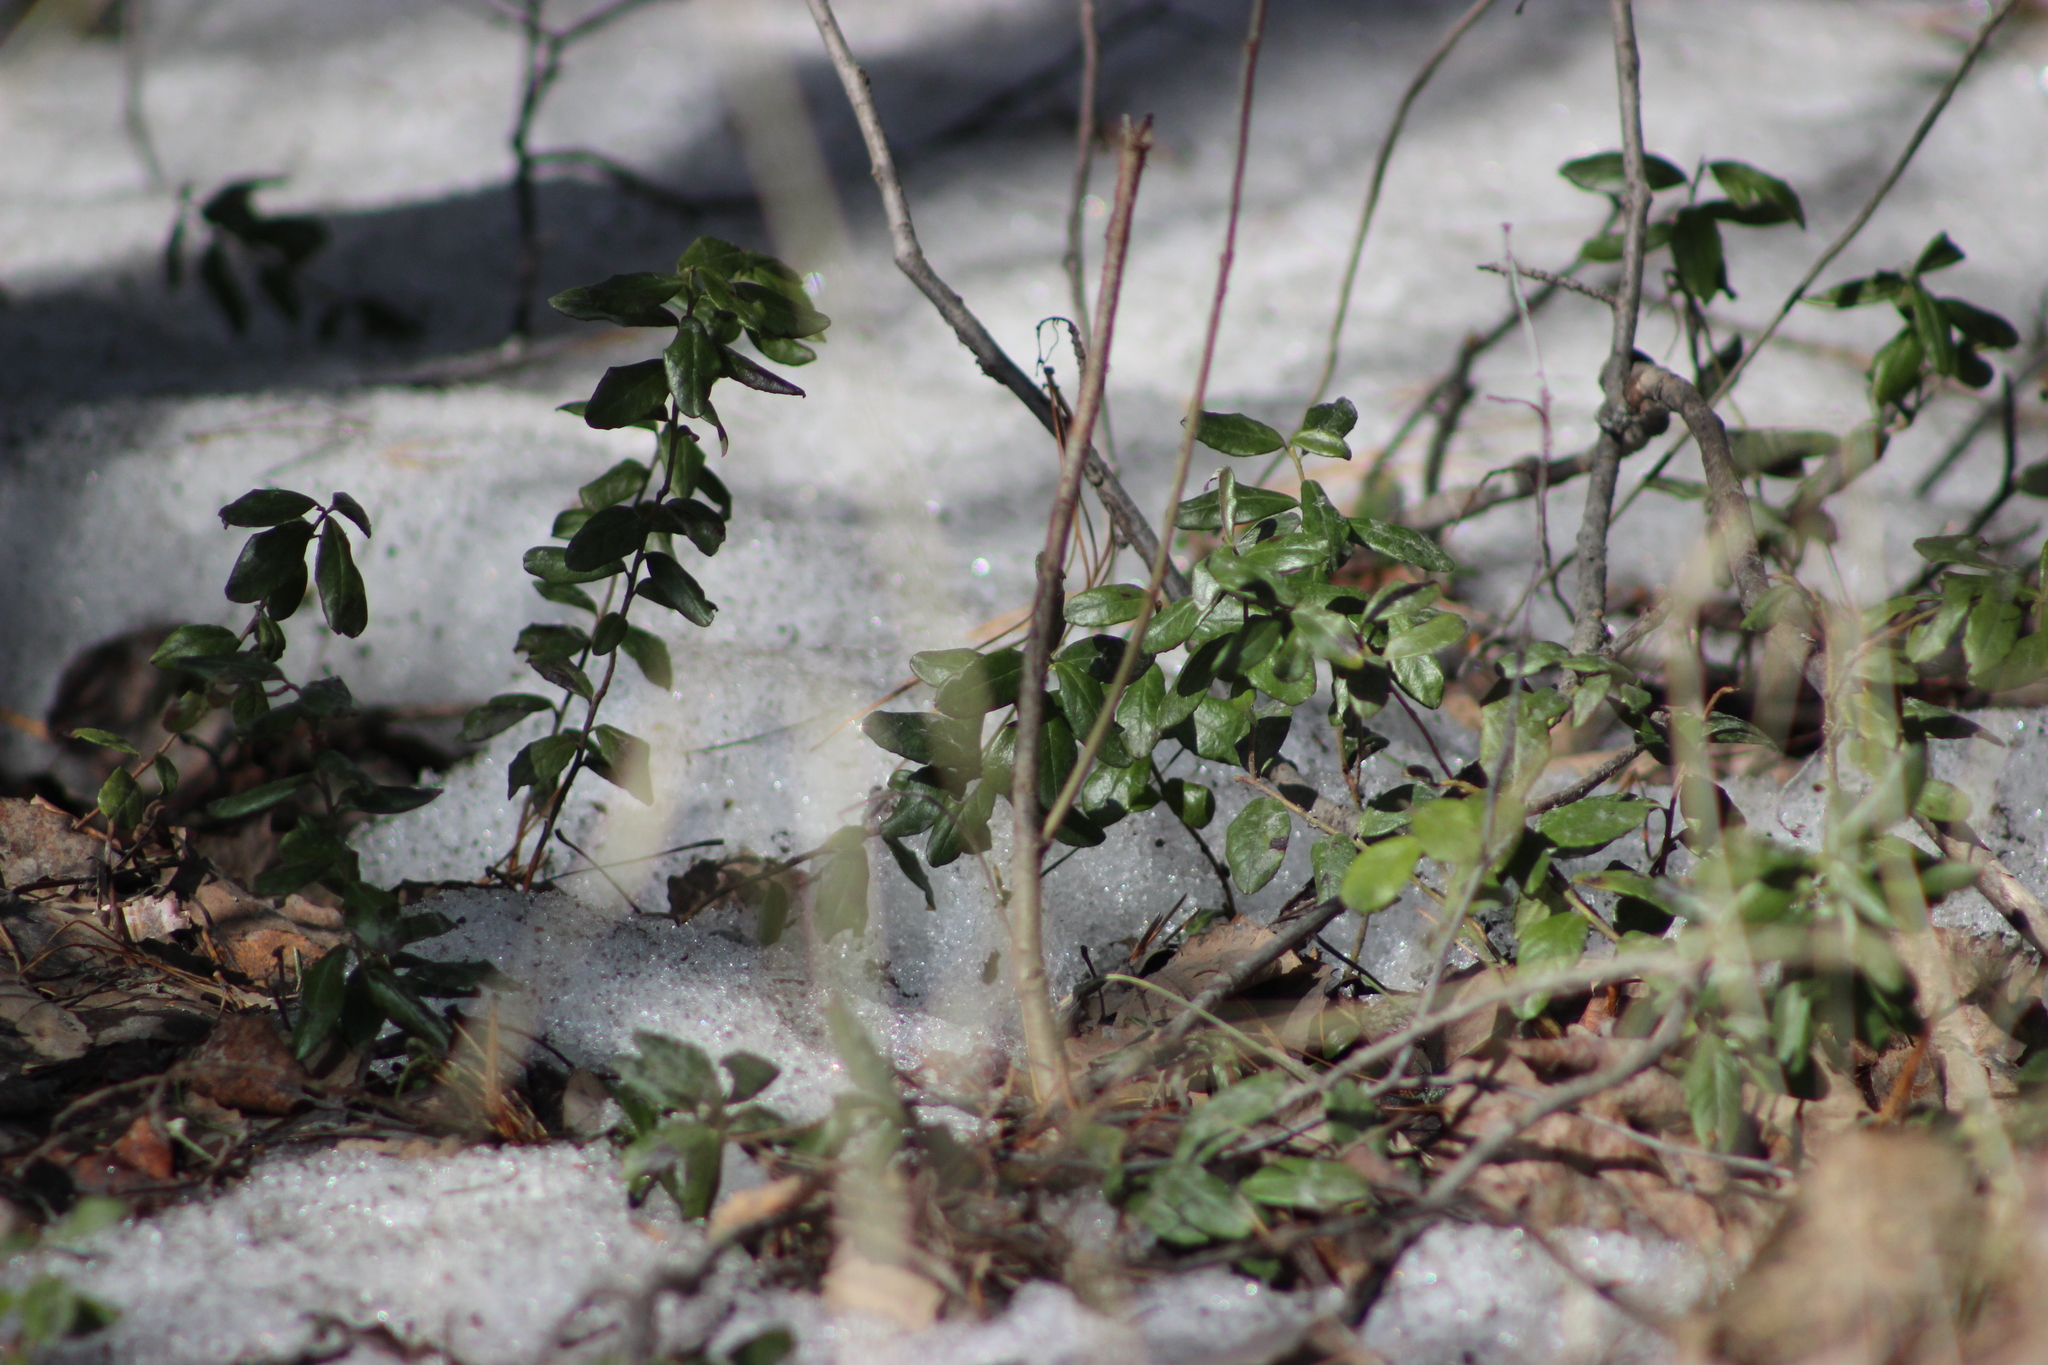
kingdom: Plantae
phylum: Tracheophyta
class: Magnoliopsida
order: Ericales
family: Ericaceae
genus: Vaccinium
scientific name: Vaccinium vitis-idaea
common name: Cowberry
